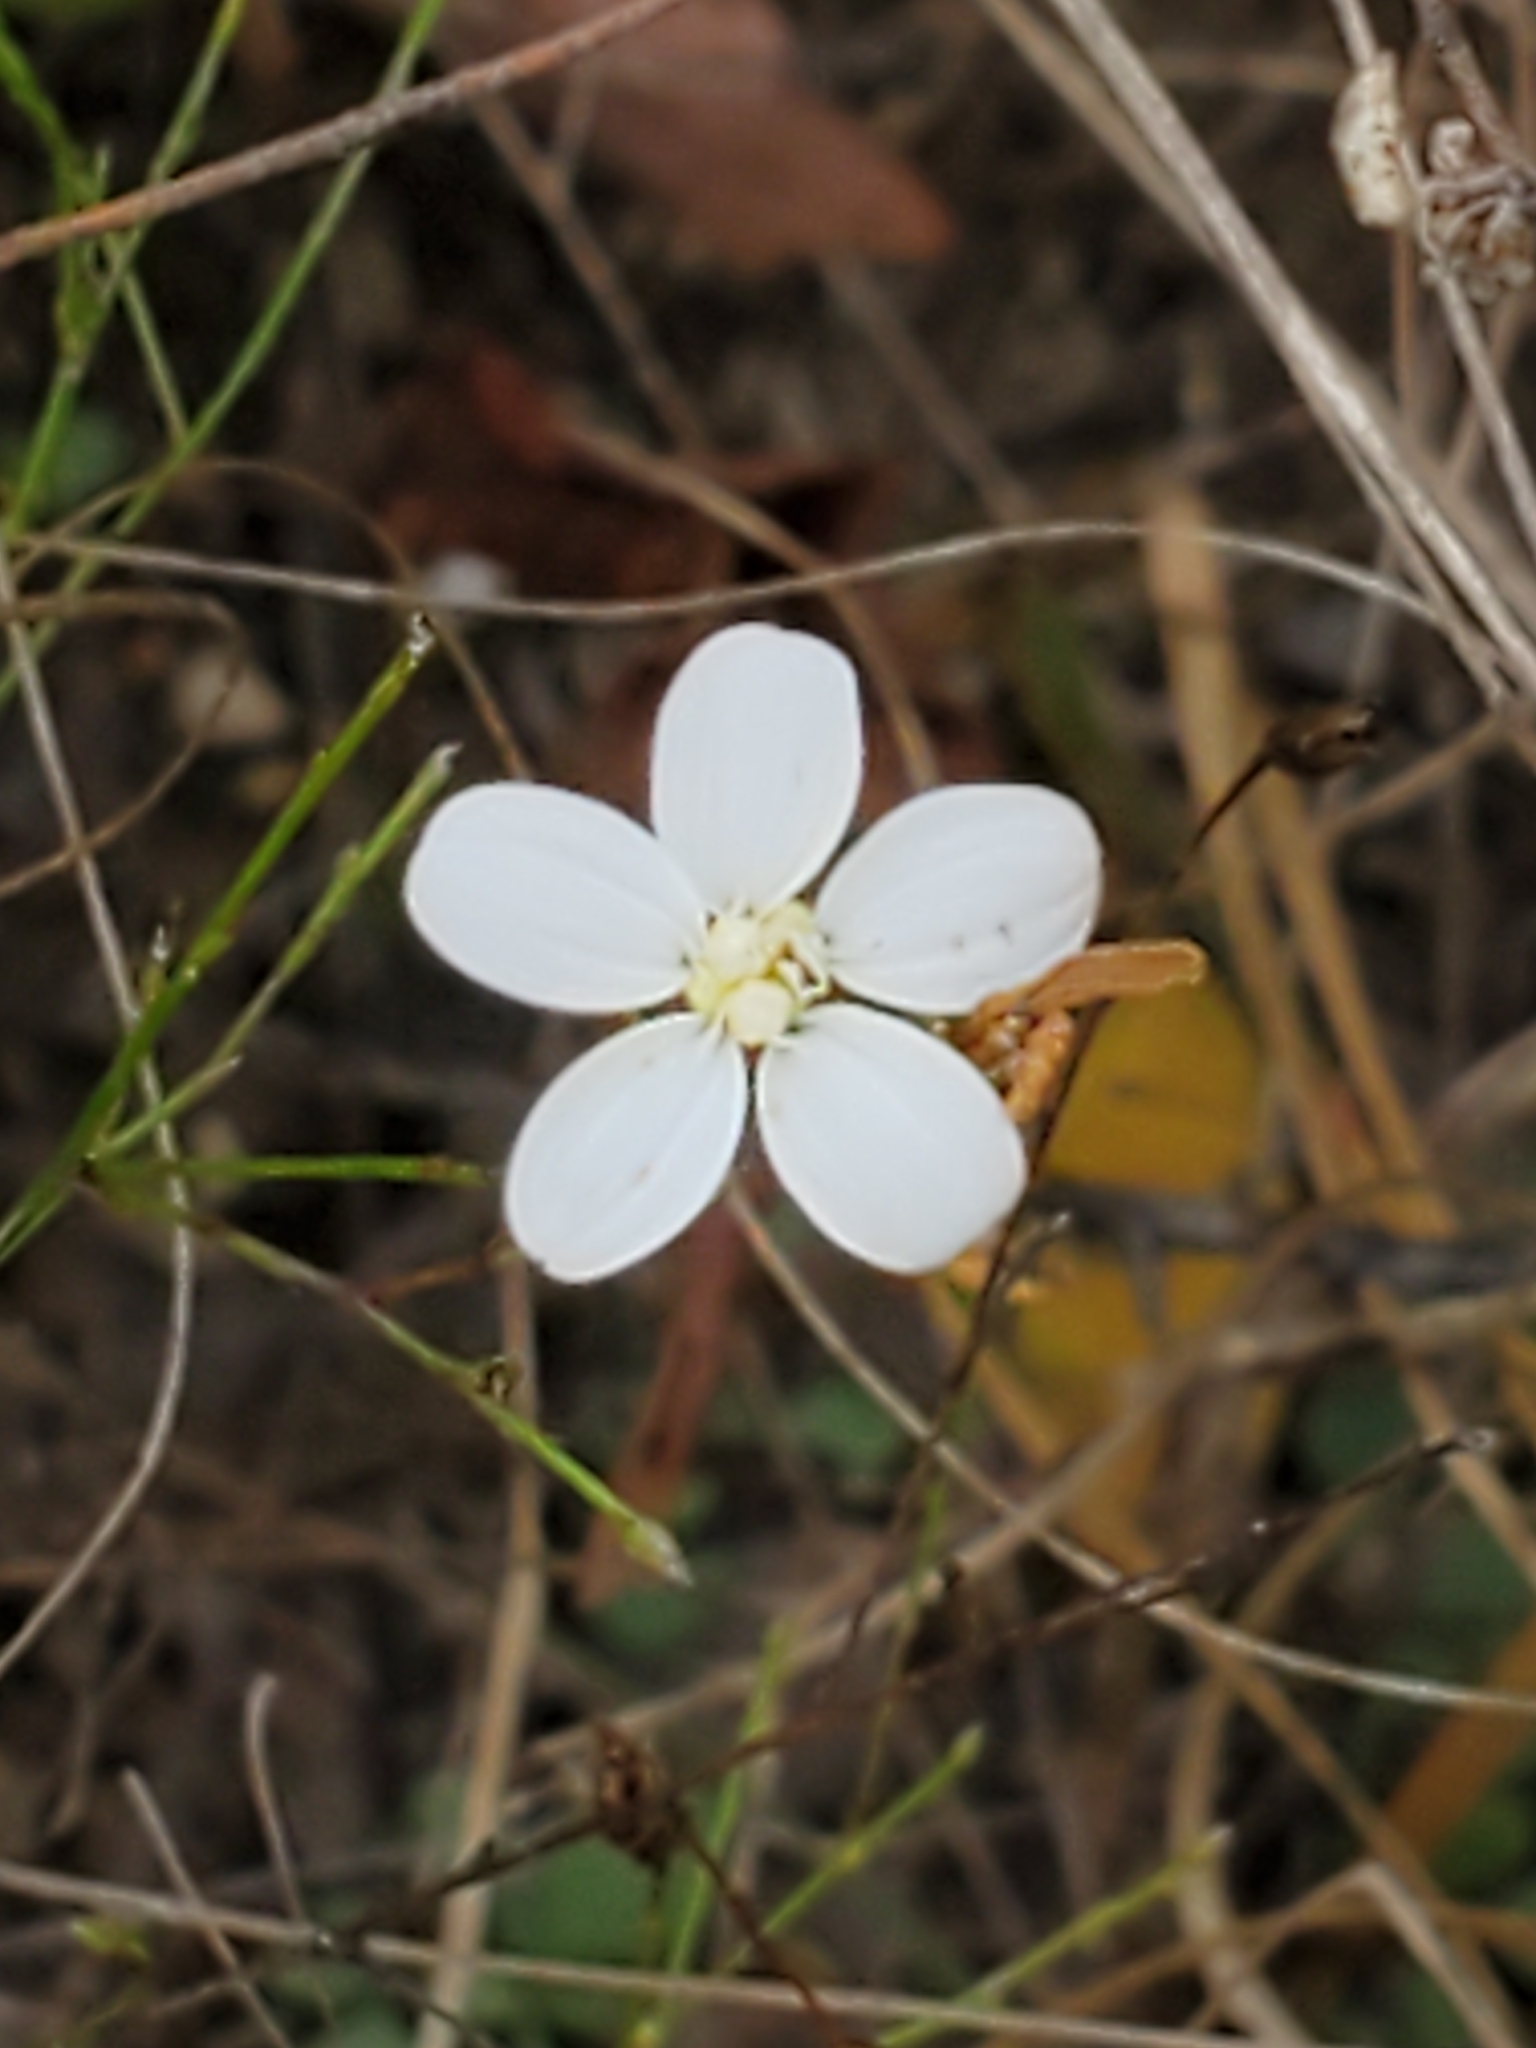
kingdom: Plantae
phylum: Tracheophyta
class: Magnoliopsida
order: Asterales
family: Asteraceae
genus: Chaetopappa
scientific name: Chaetopappa effusa
